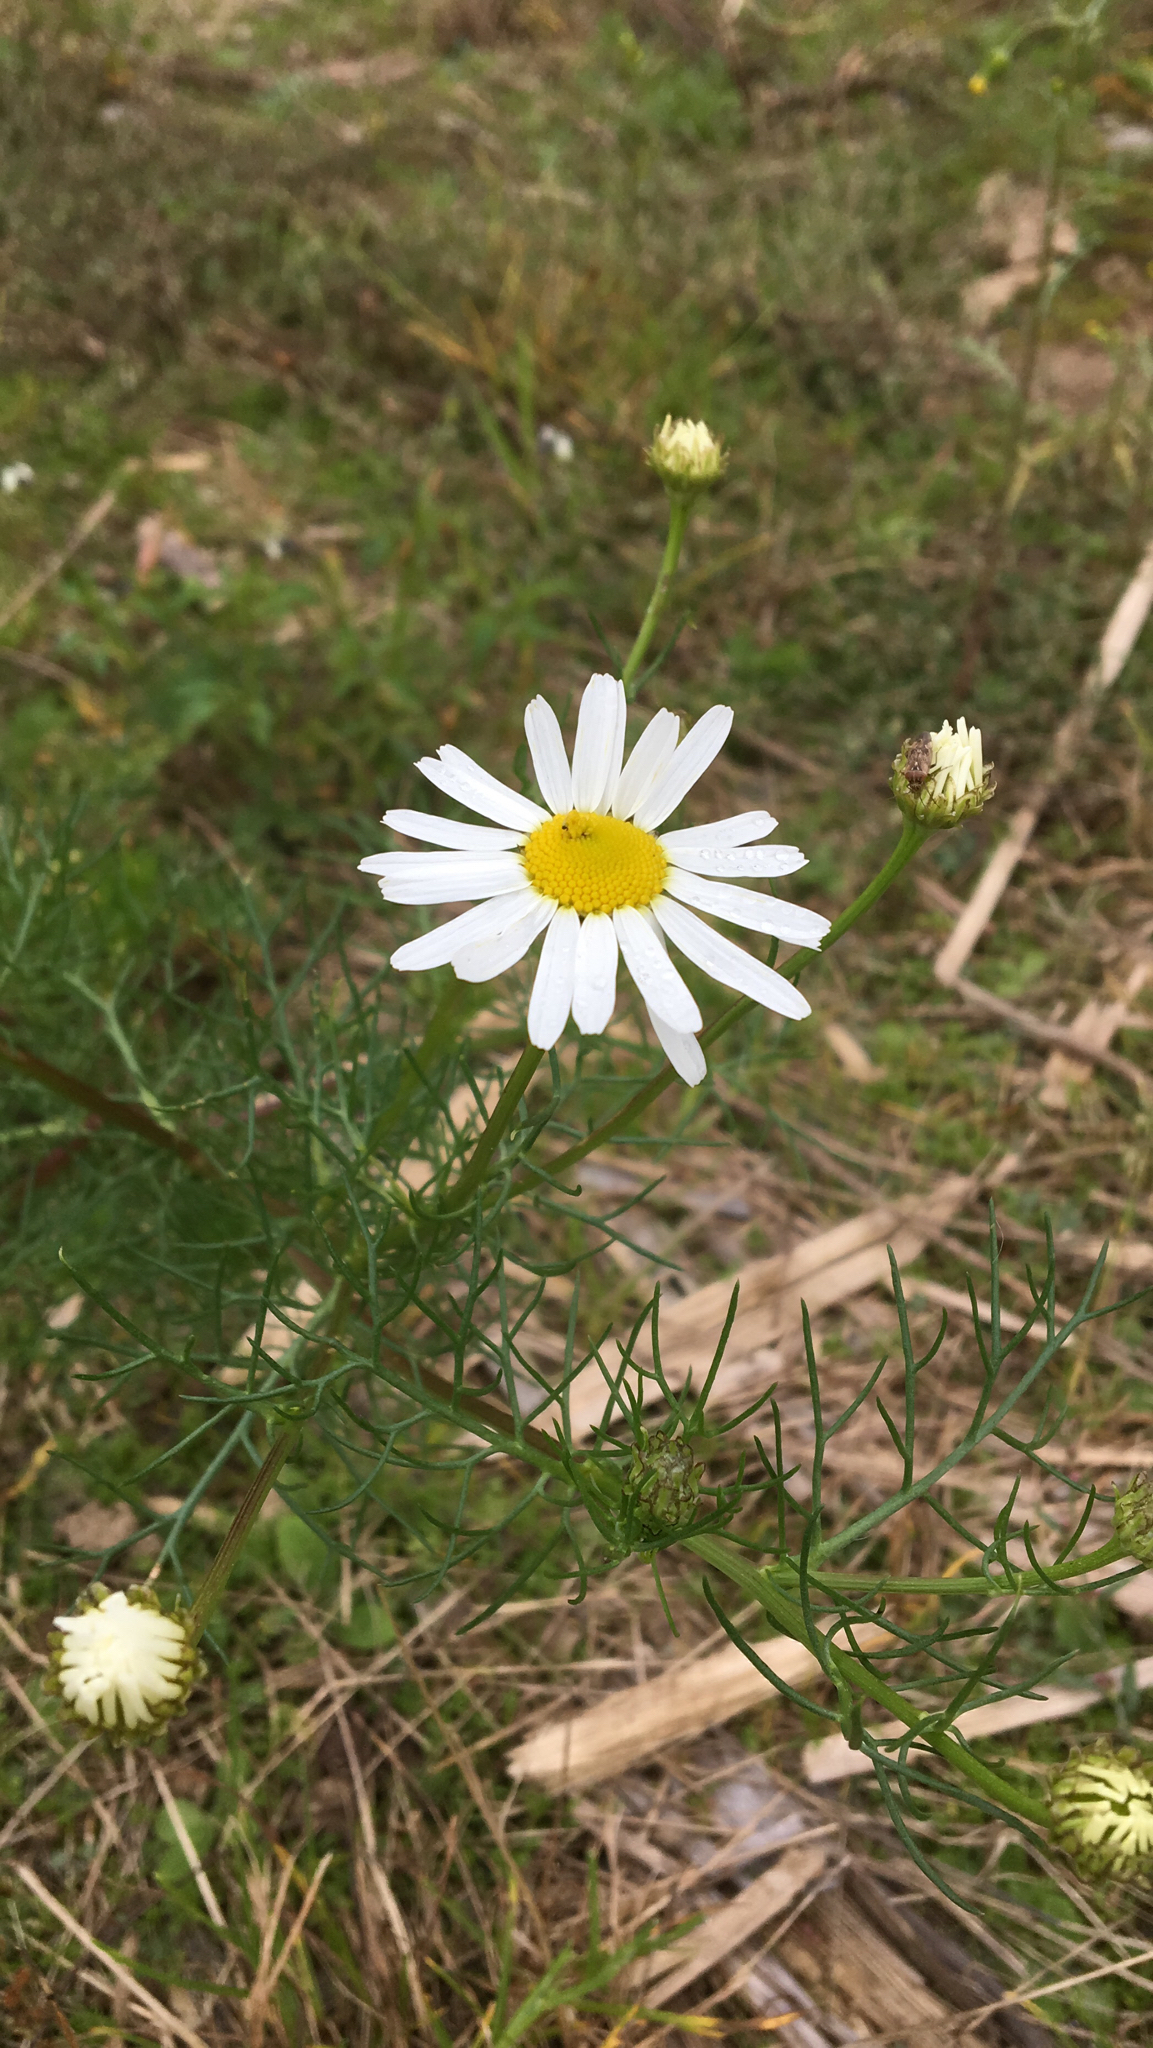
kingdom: Plantae
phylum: Tracheophyta
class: Magnoliopsida
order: Asterales
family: Asteraceae
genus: Tripleurospermum
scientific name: Tripleurospermum inodorum
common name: Scentless mayweed
